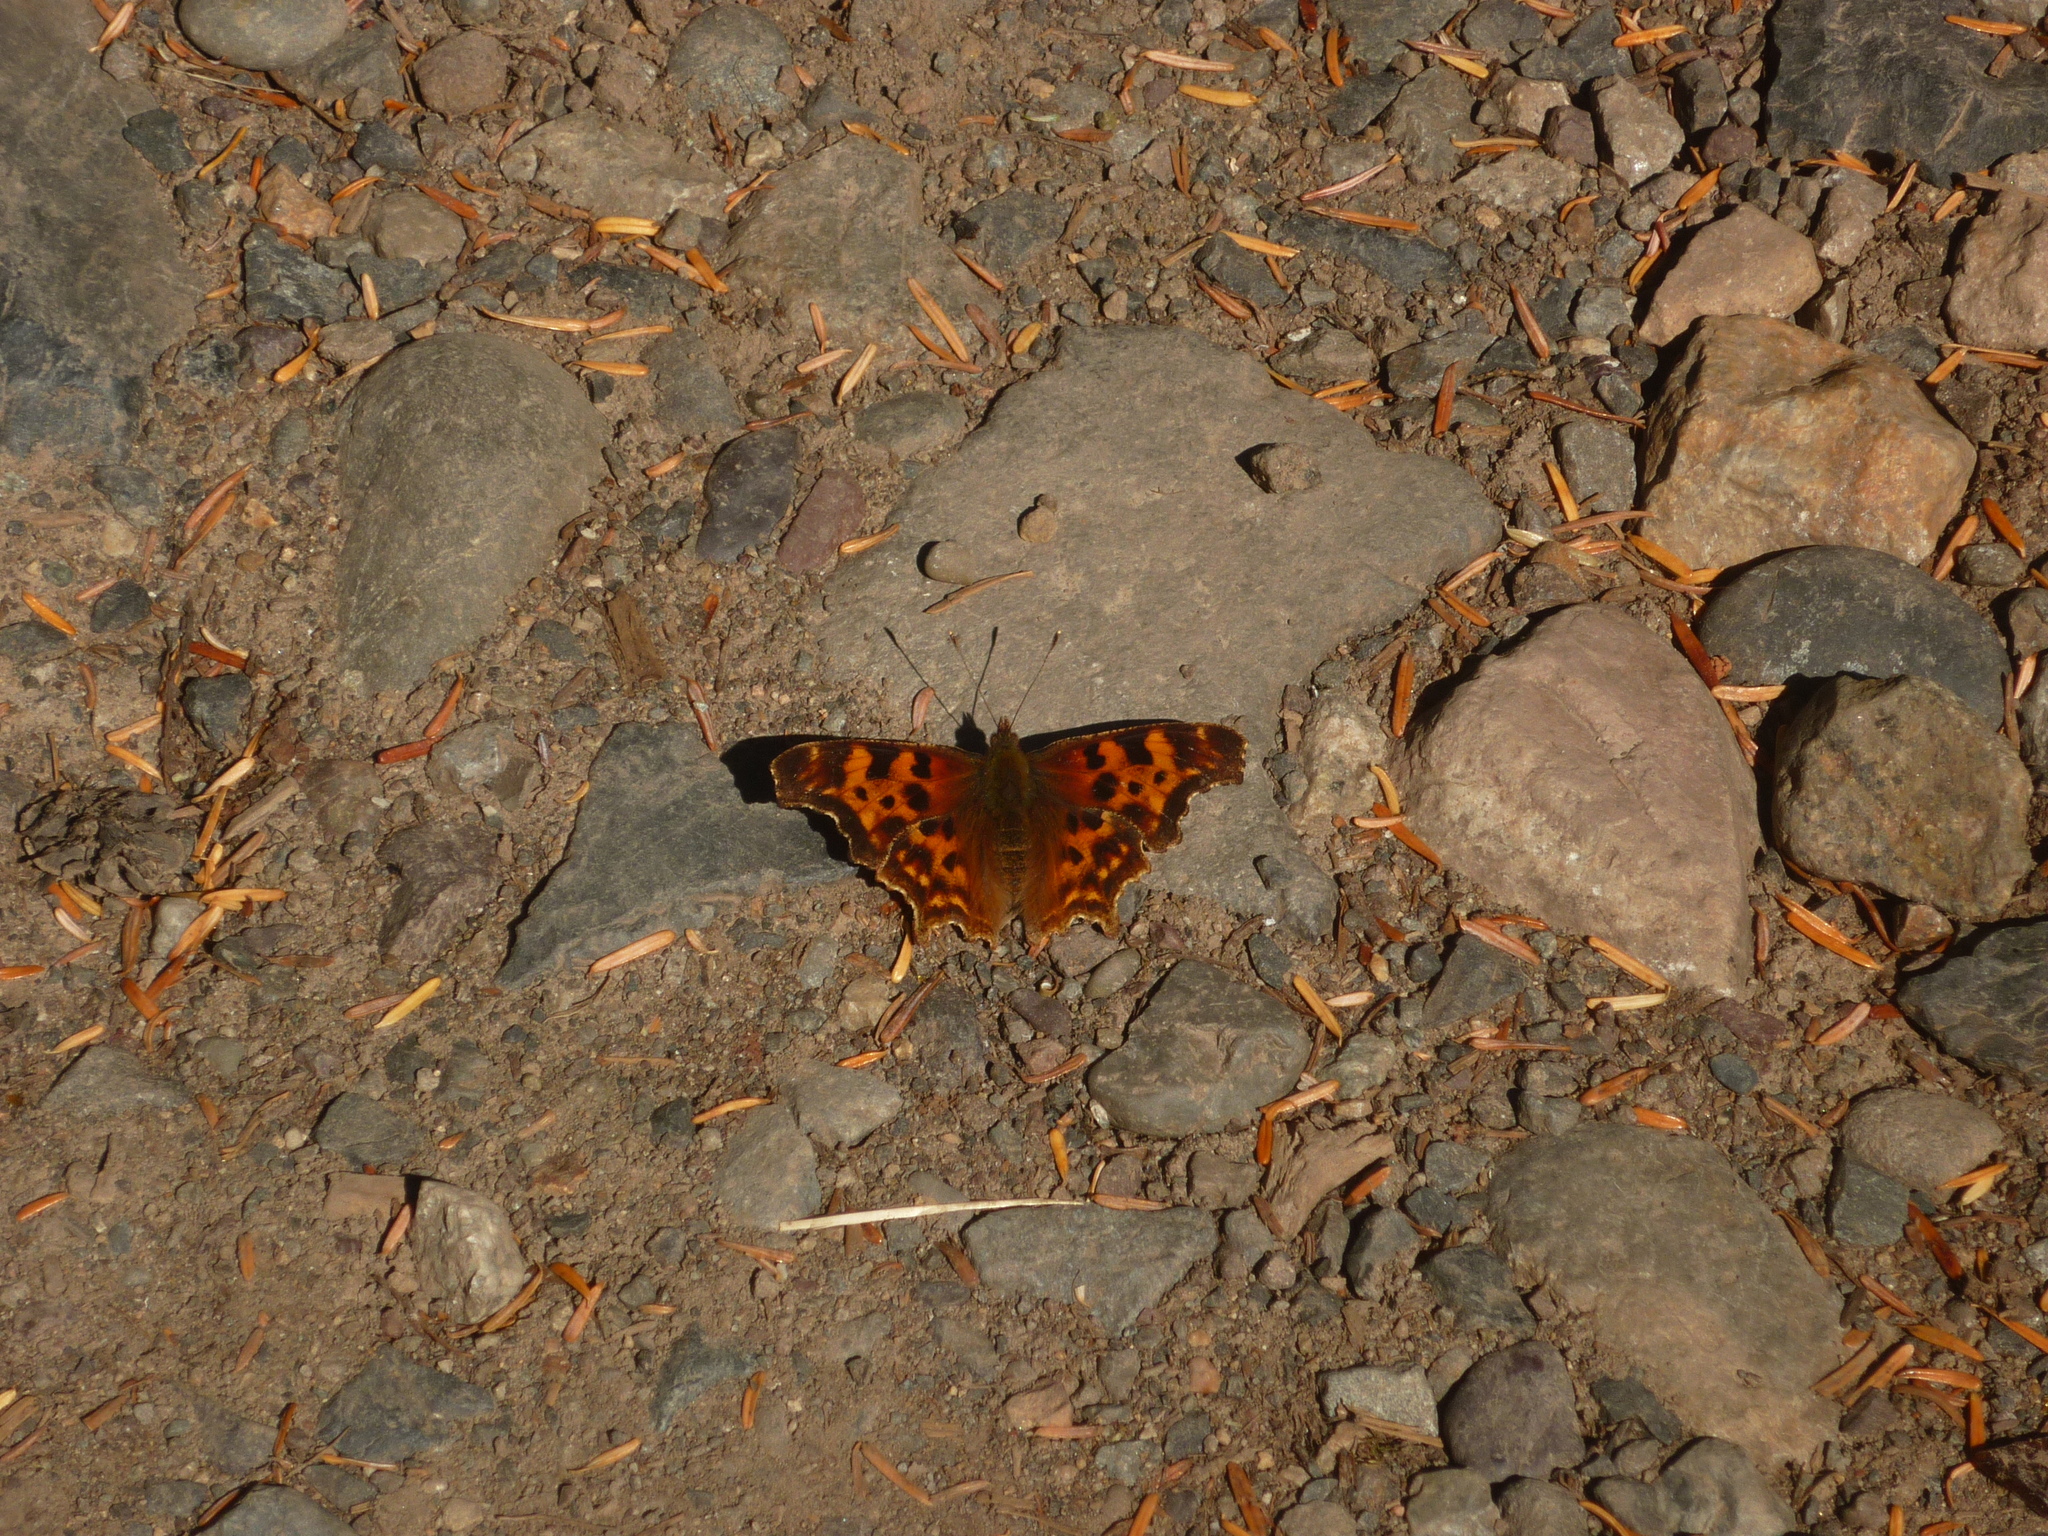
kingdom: Animalia
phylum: Arthropoda
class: Insecta
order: Lepidoptera
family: Nymphalidae
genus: Polygonia
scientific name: Polygonia satyrus
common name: Satyr angle wing
